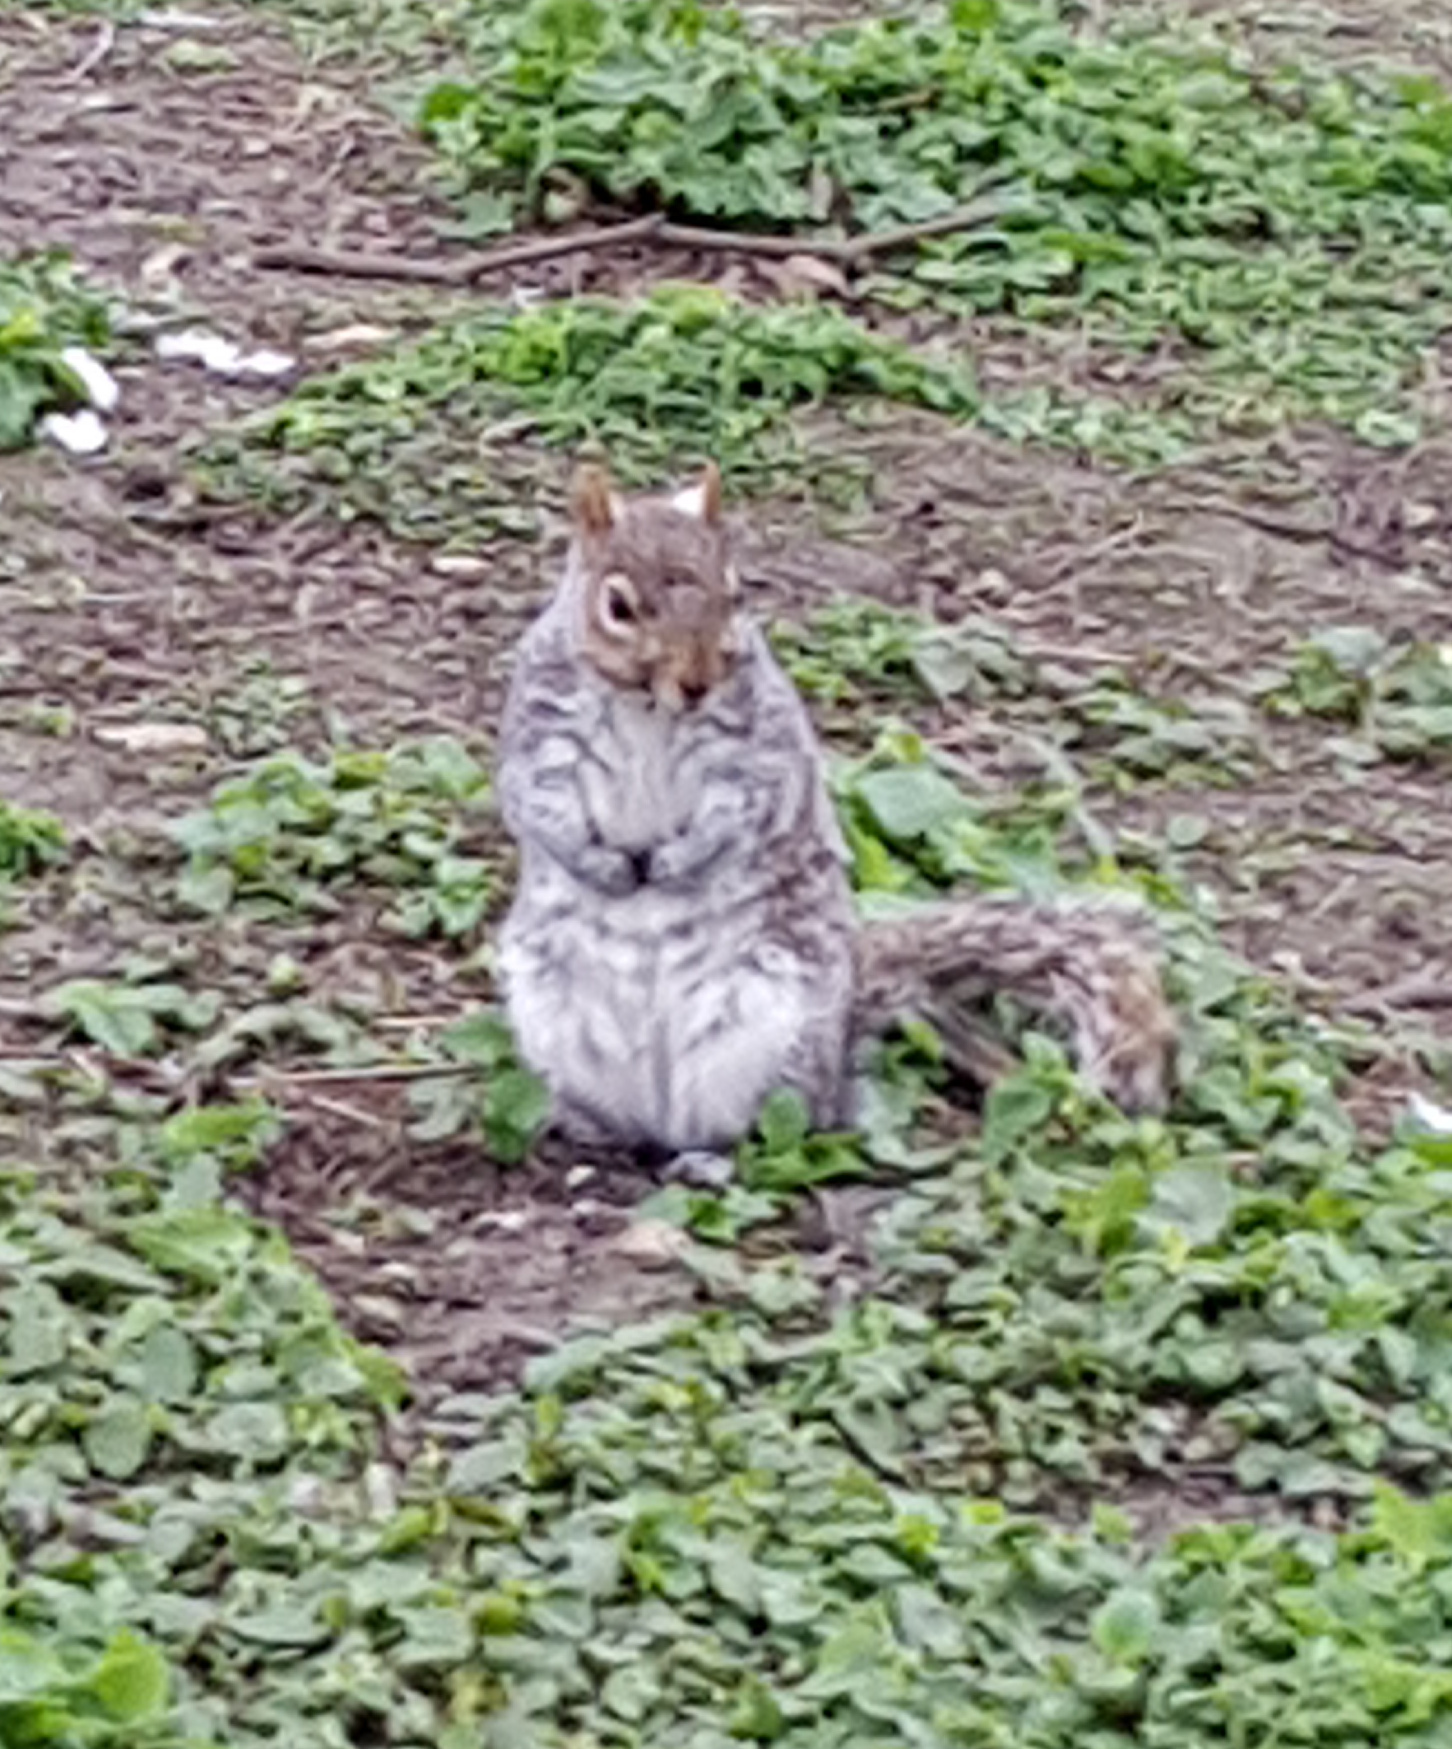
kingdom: Animalia
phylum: Chordata
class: Mammalia
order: Rodentia
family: Sciuridae
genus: Sciurus
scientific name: Sciurus carolinensis
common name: Eastern gray squirrel
